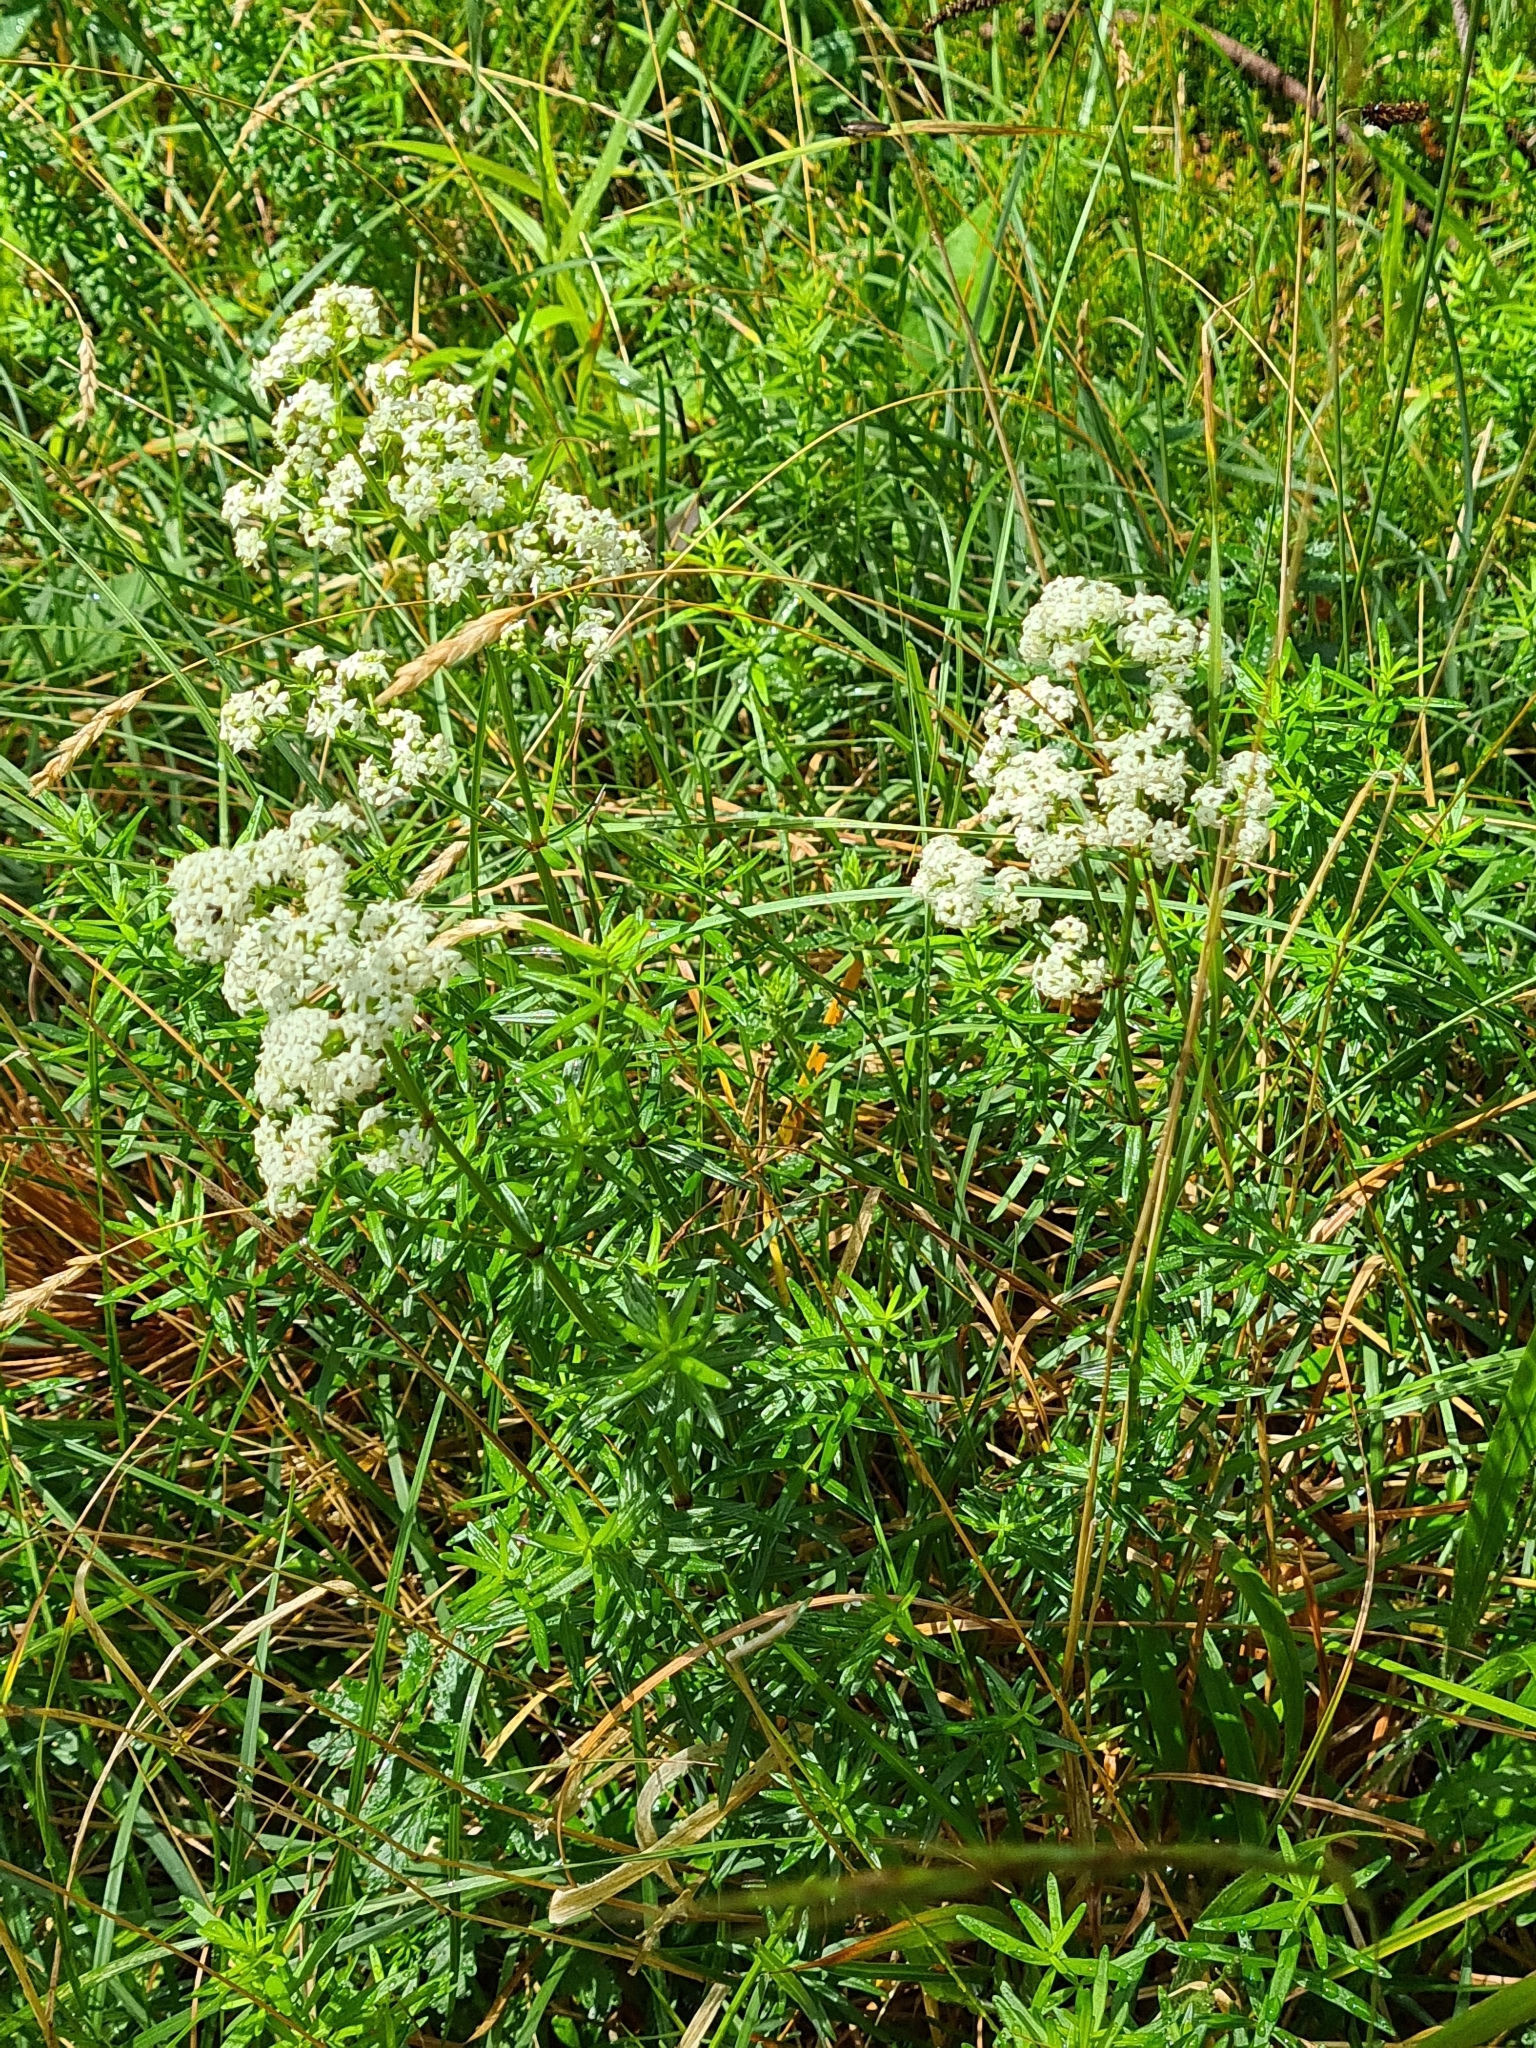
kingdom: Plantae
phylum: Tracheophyta
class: Magnoliopsida
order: Gentianales
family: Rubiaceae
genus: Galium
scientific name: Galium boreale
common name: Northern bedstraw
